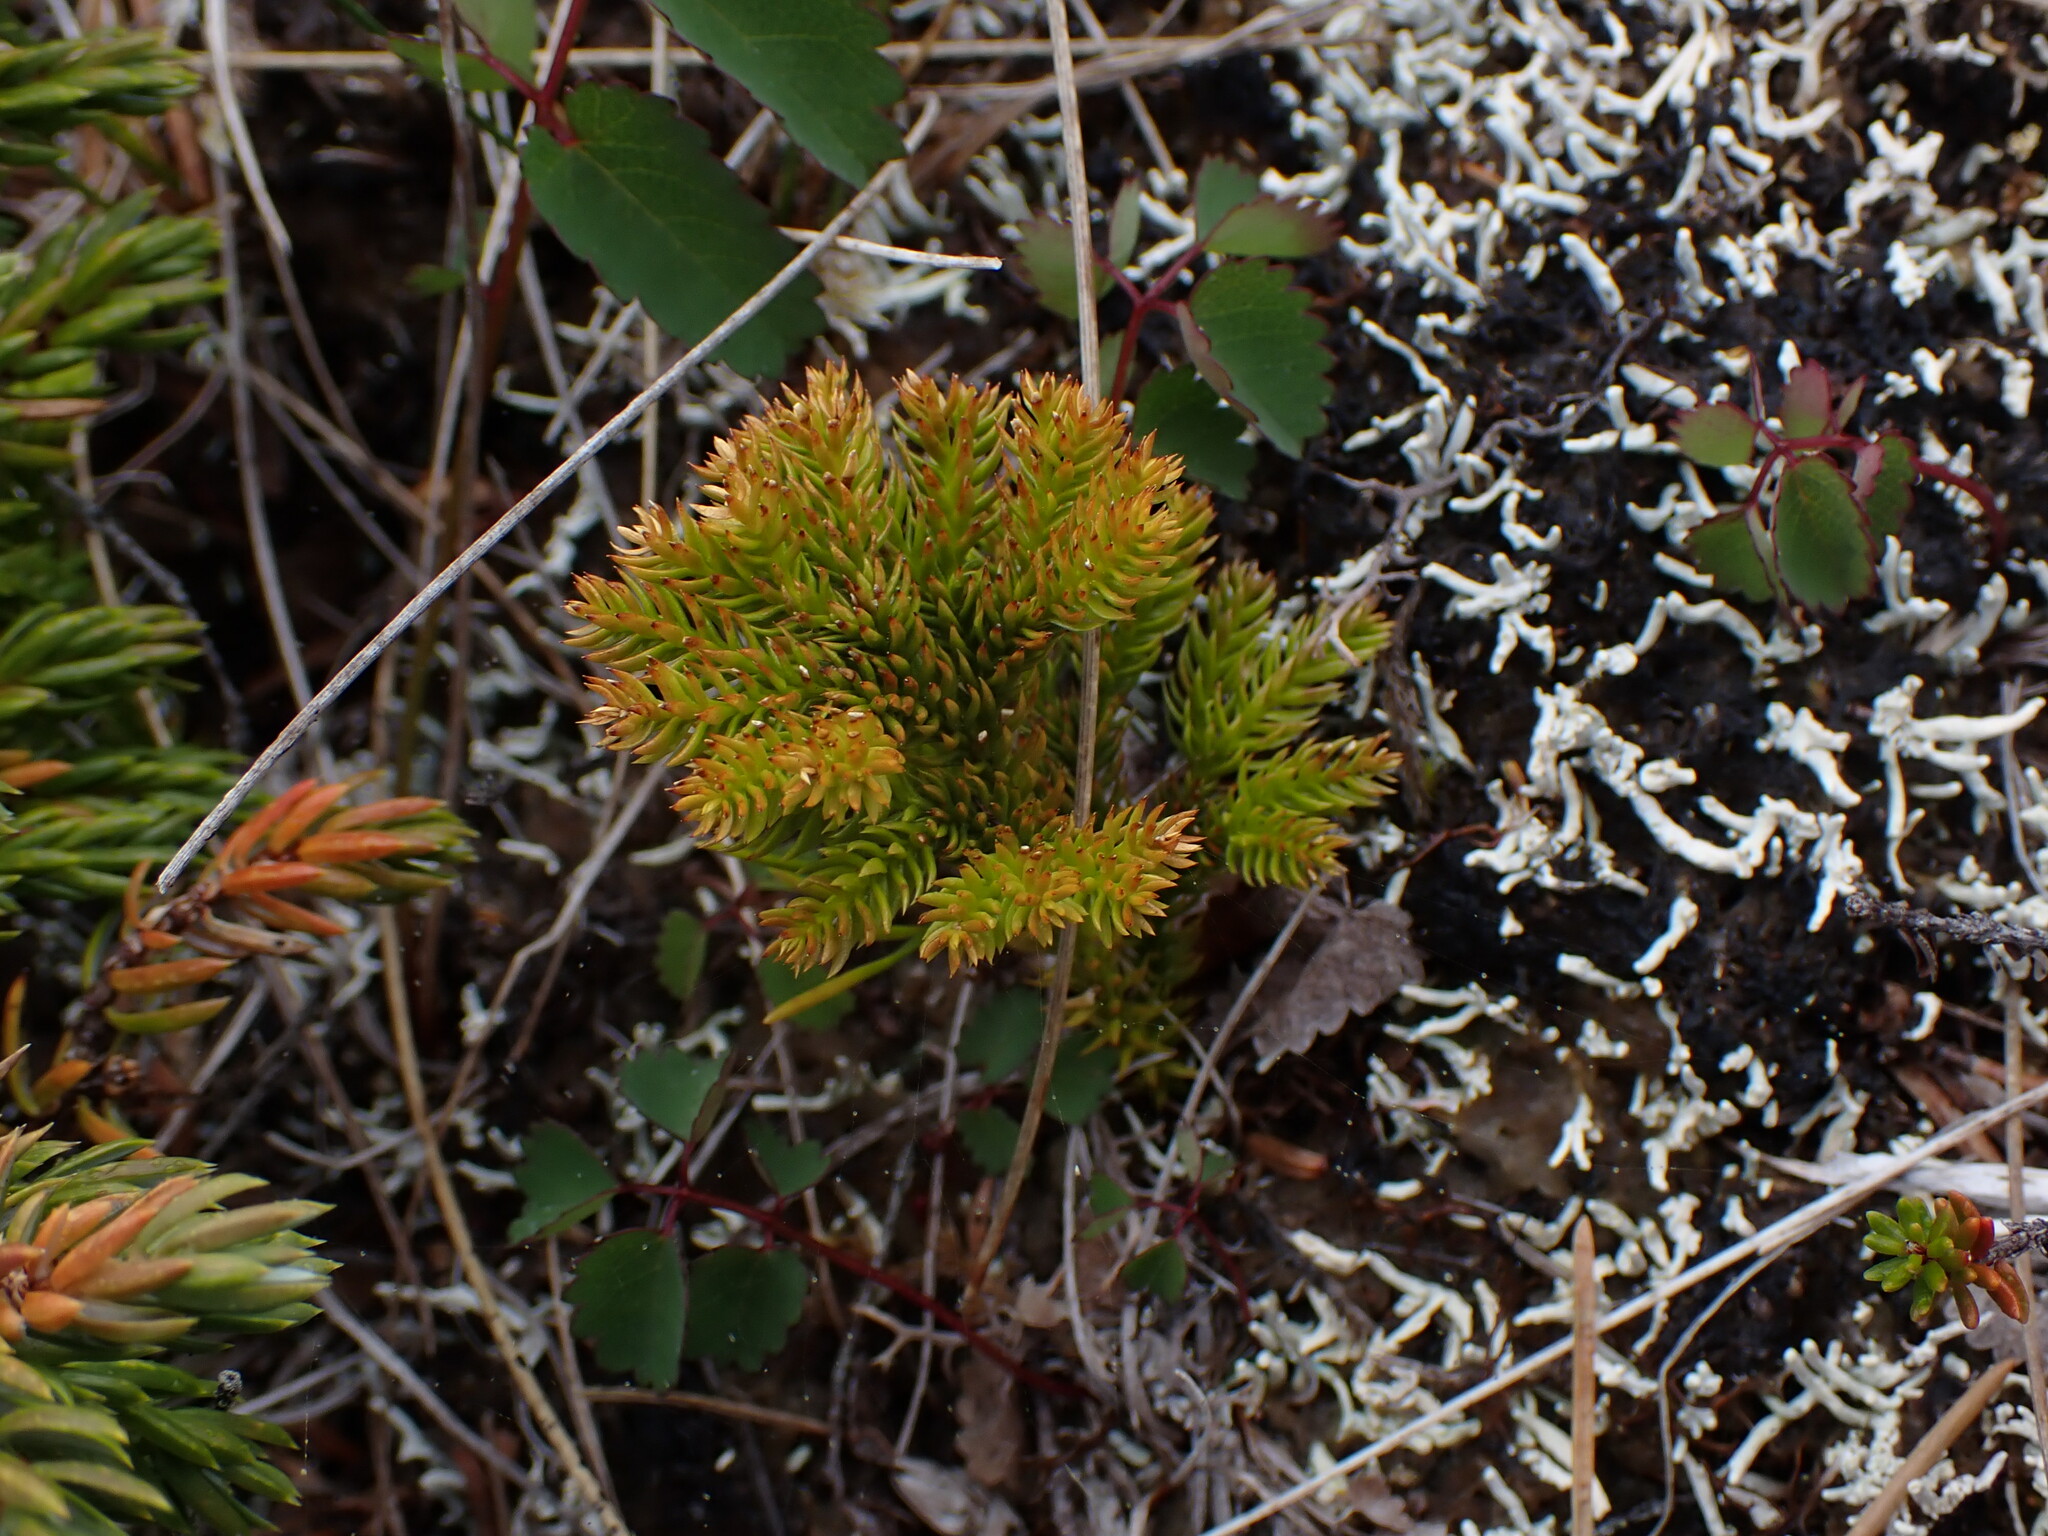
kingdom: Plantae
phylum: Tracheophyta
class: Lycopodiopsida
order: Lycopodiales
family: Lycopodiaceae
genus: Dendrolycopodium
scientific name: Dendrolycopodium dendroideum
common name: Northern tree-clubmoss
